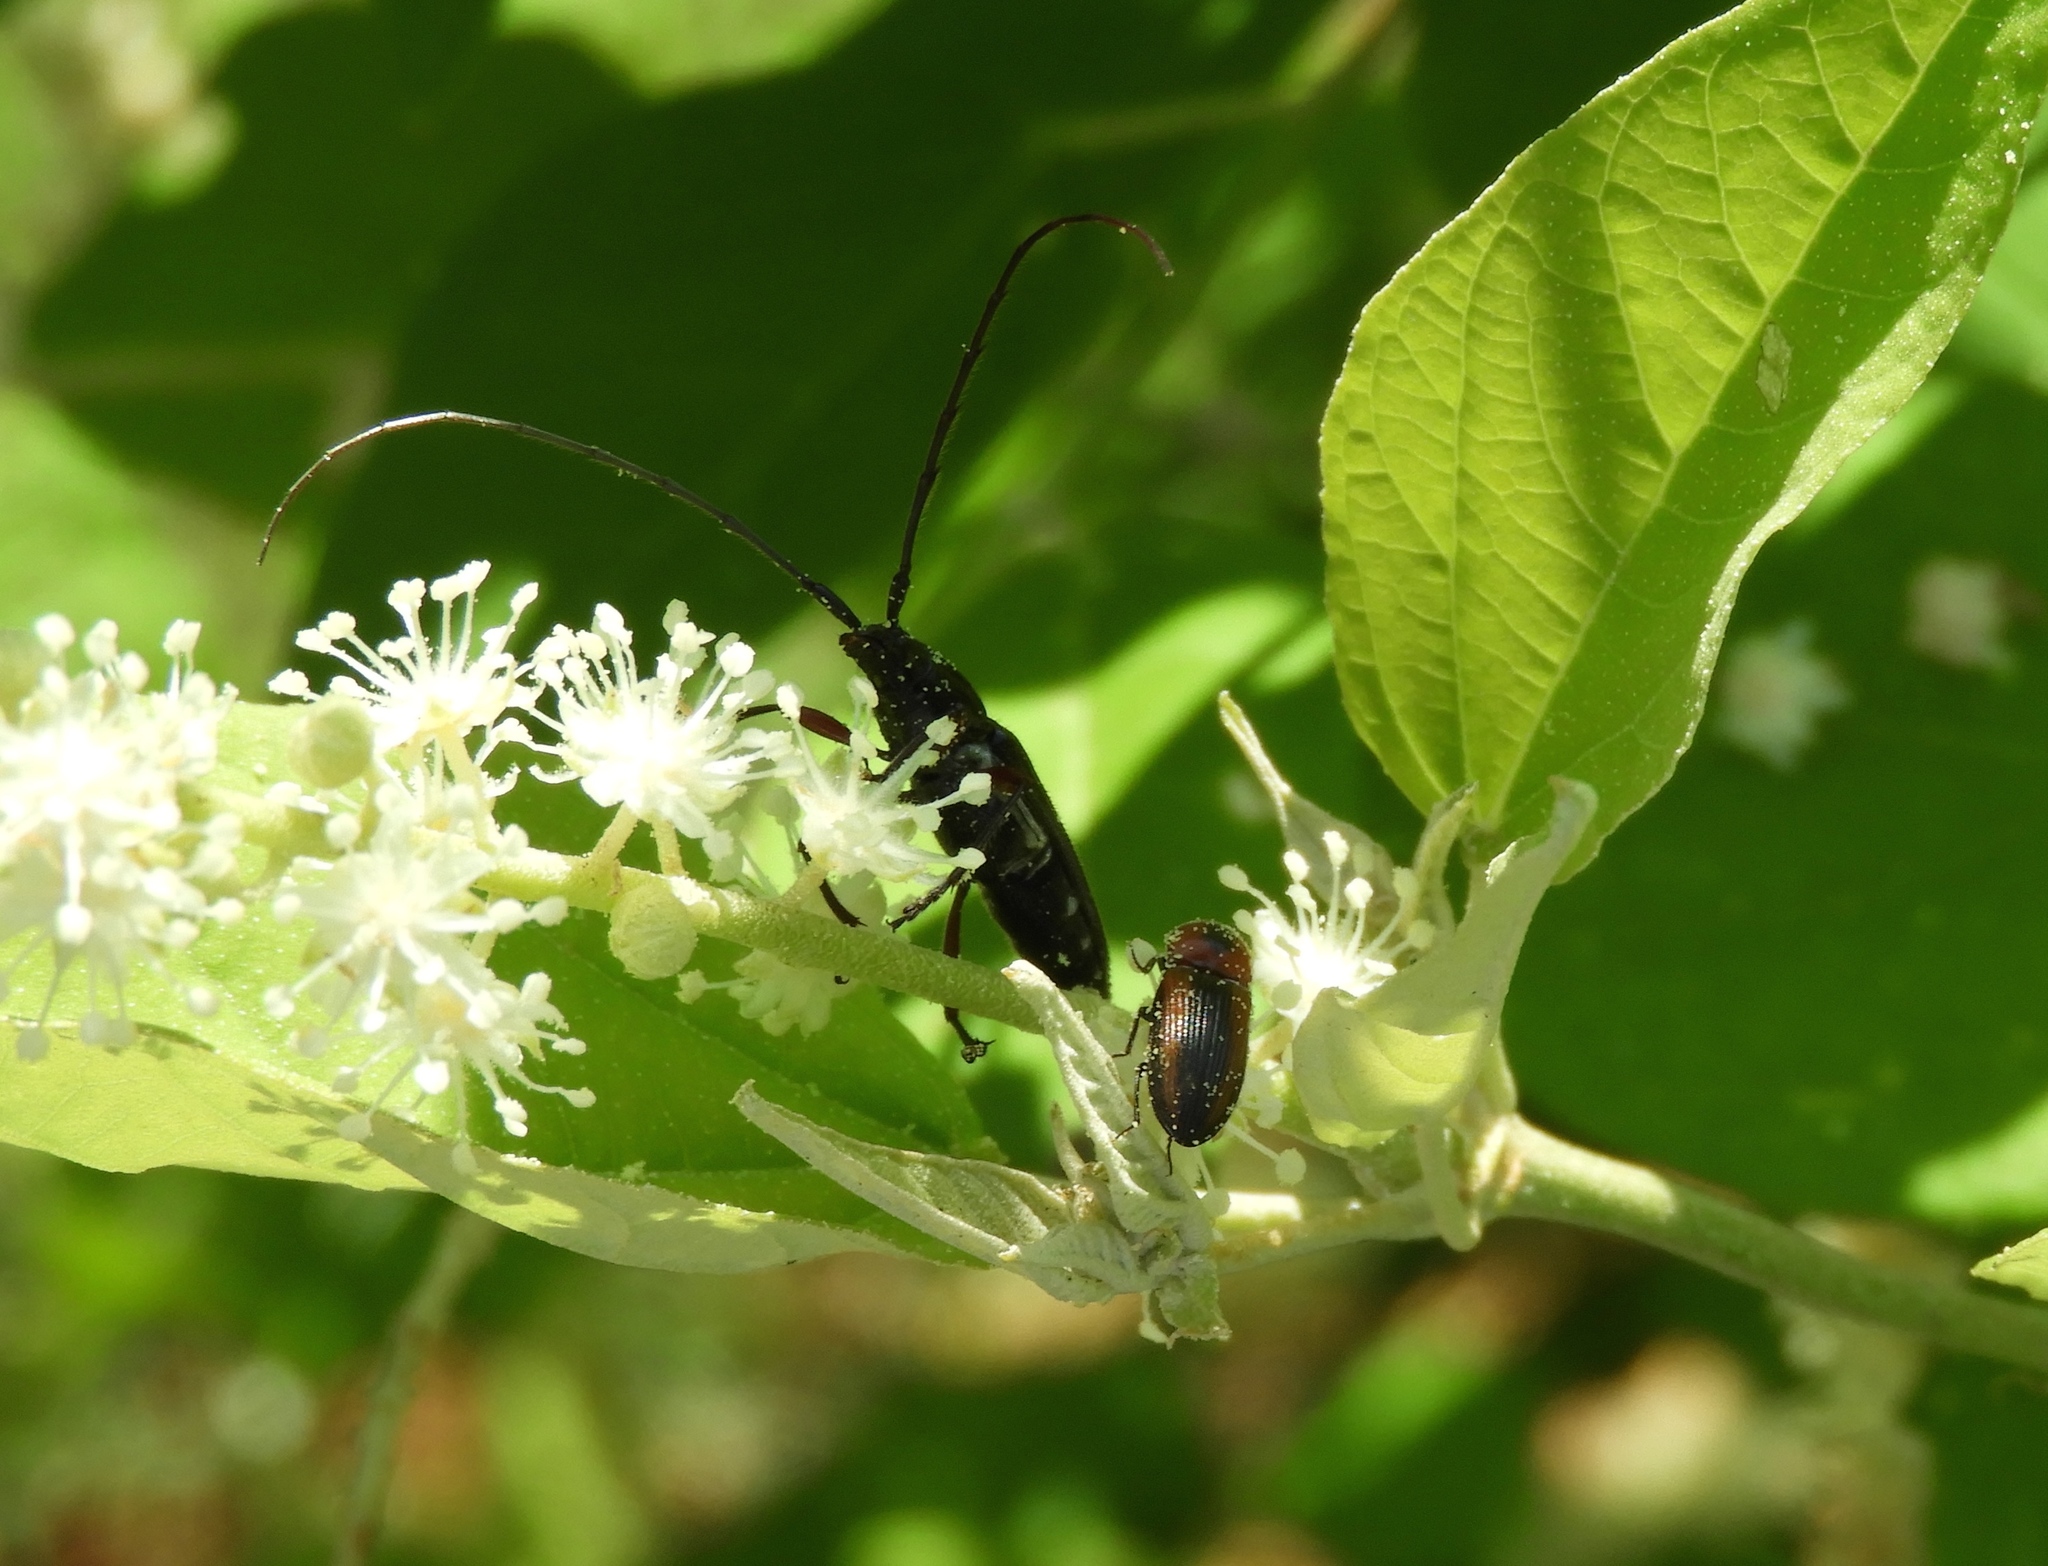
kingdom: Animalia
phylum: Arthropoda
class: Insecta
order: Coleoptera
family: Elateridae
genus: Cardiophorus
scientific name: Cardiophorus
